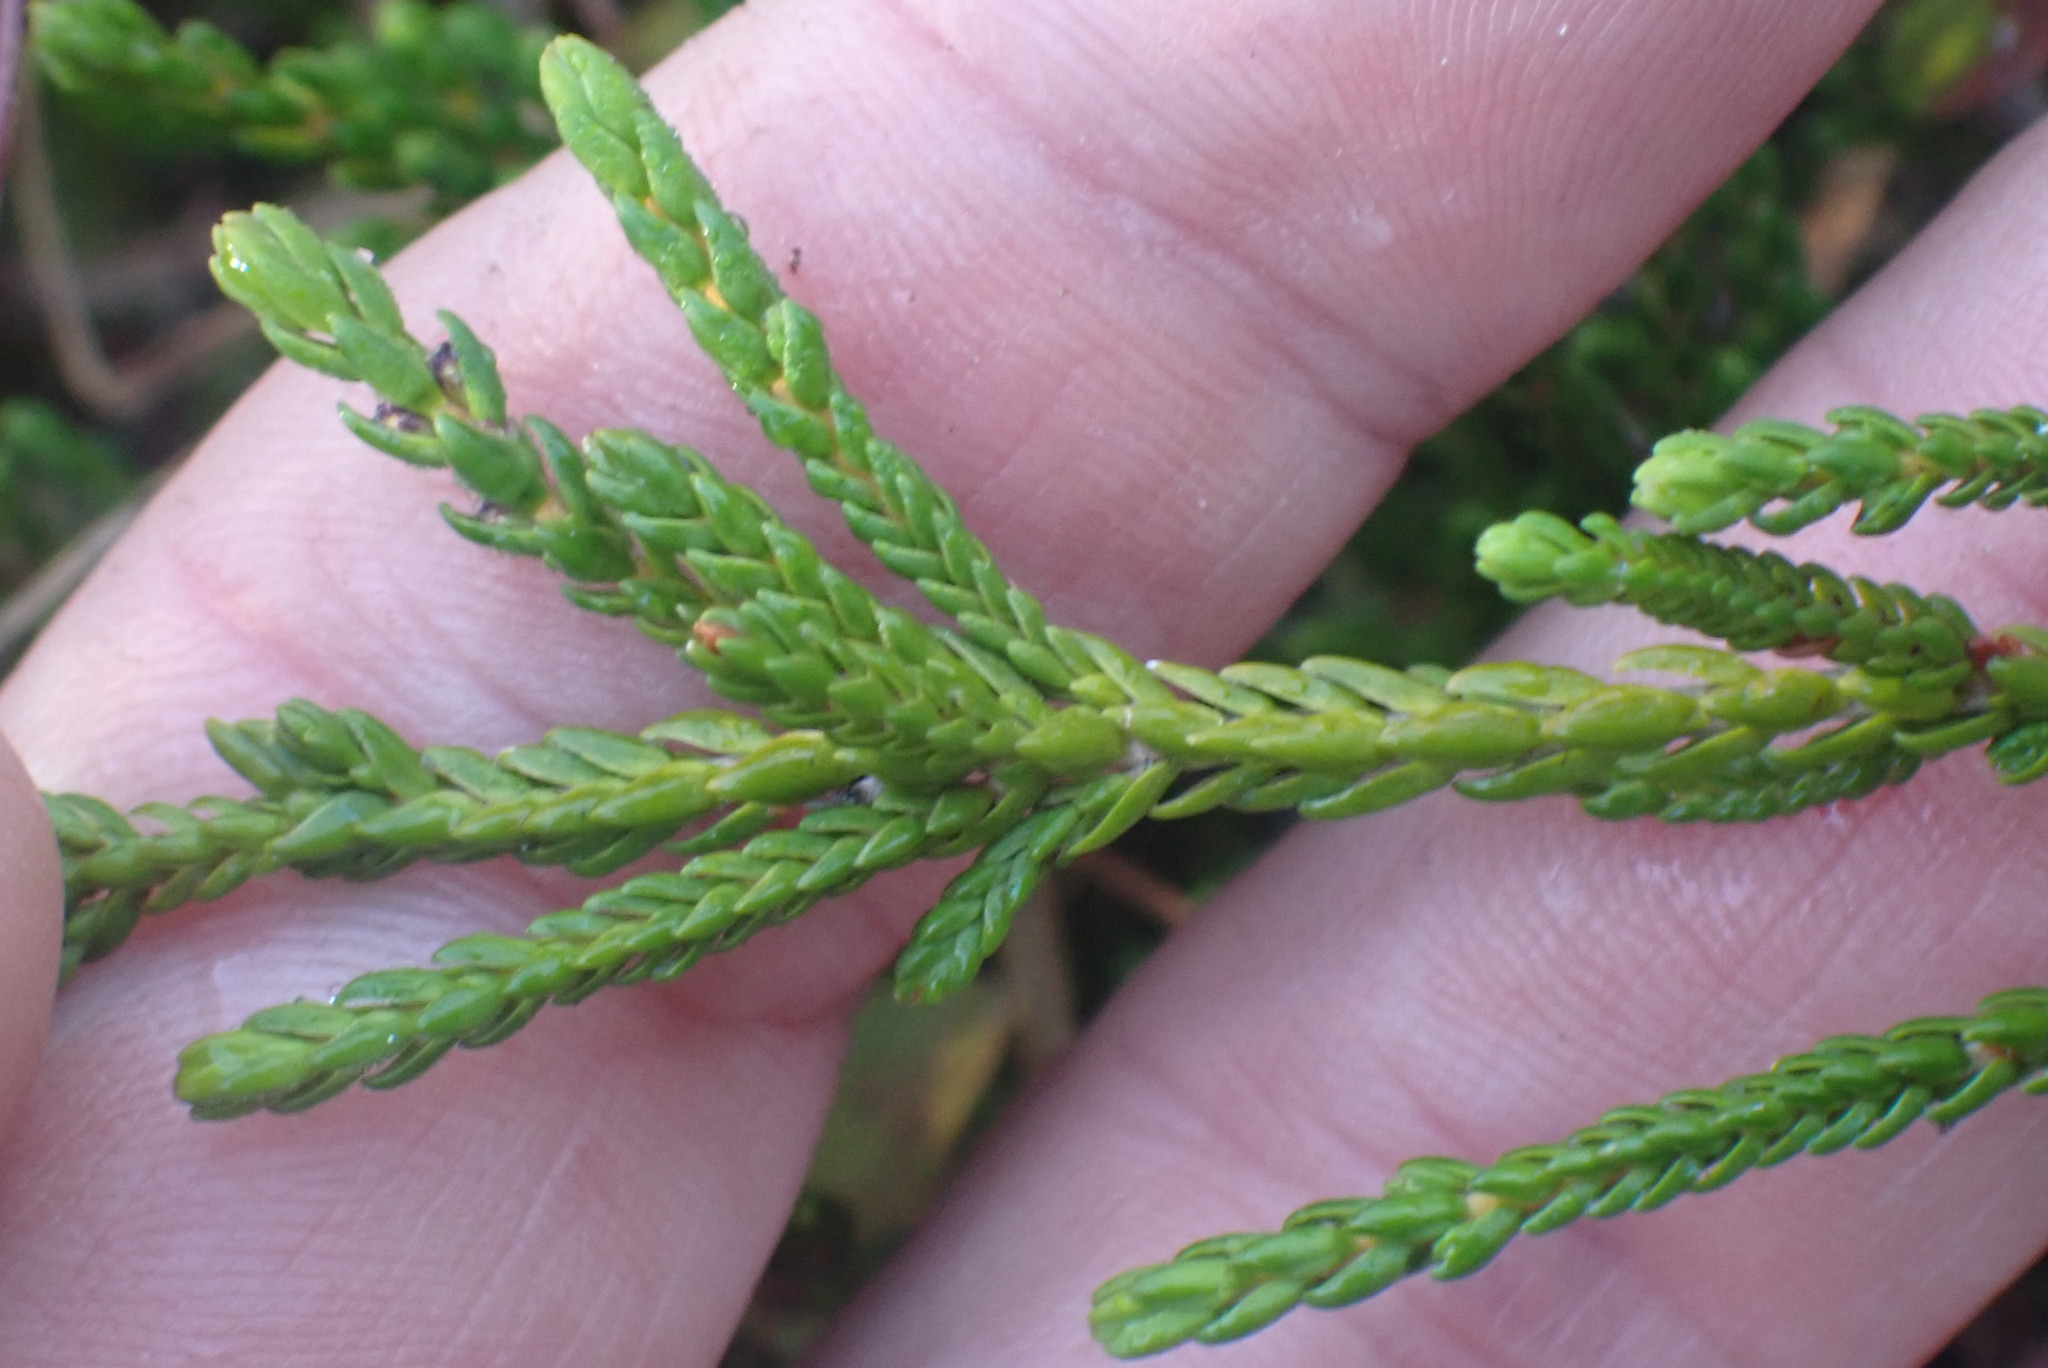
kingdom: Plantae
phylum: Tracheophyta
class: Magnoliopsida
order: Ericales
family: Ericaceae
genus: Cassiope
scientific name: Cassiope mertensiana
